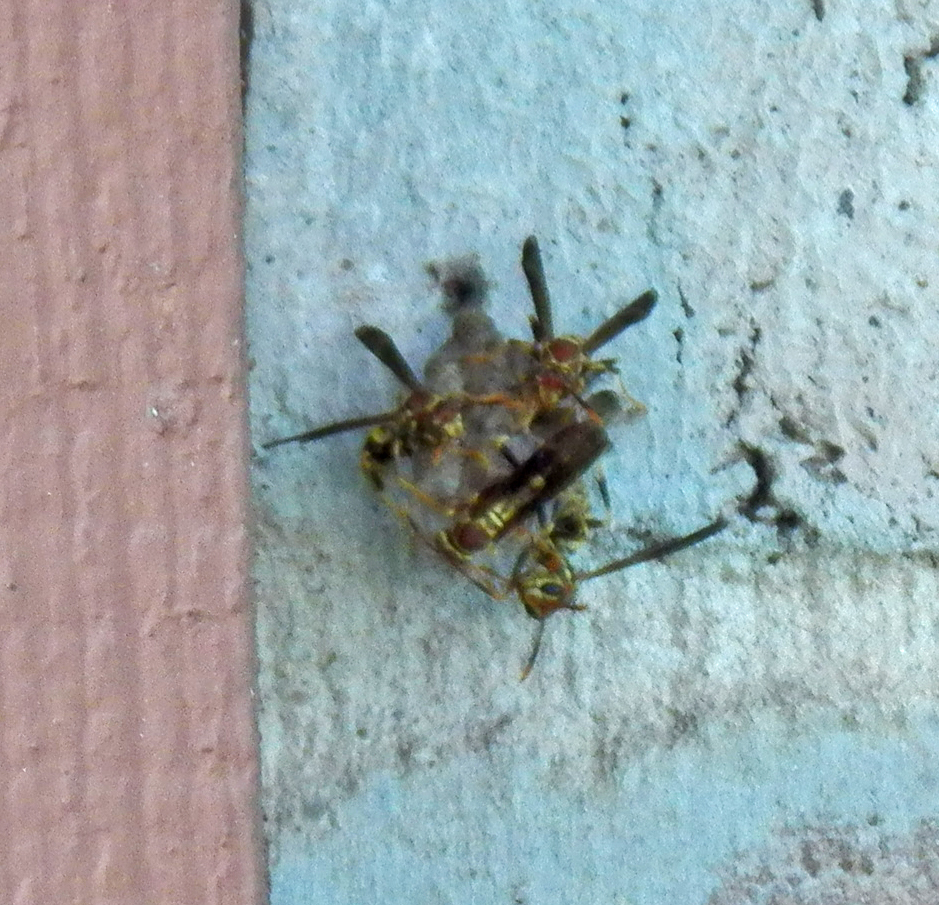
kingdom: Animalia
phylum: Arthropoda
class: Insecta
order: Hymenoptera
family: Eumenidae
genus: Polistes
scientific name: Polistes exclamans
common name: Paper wasp
